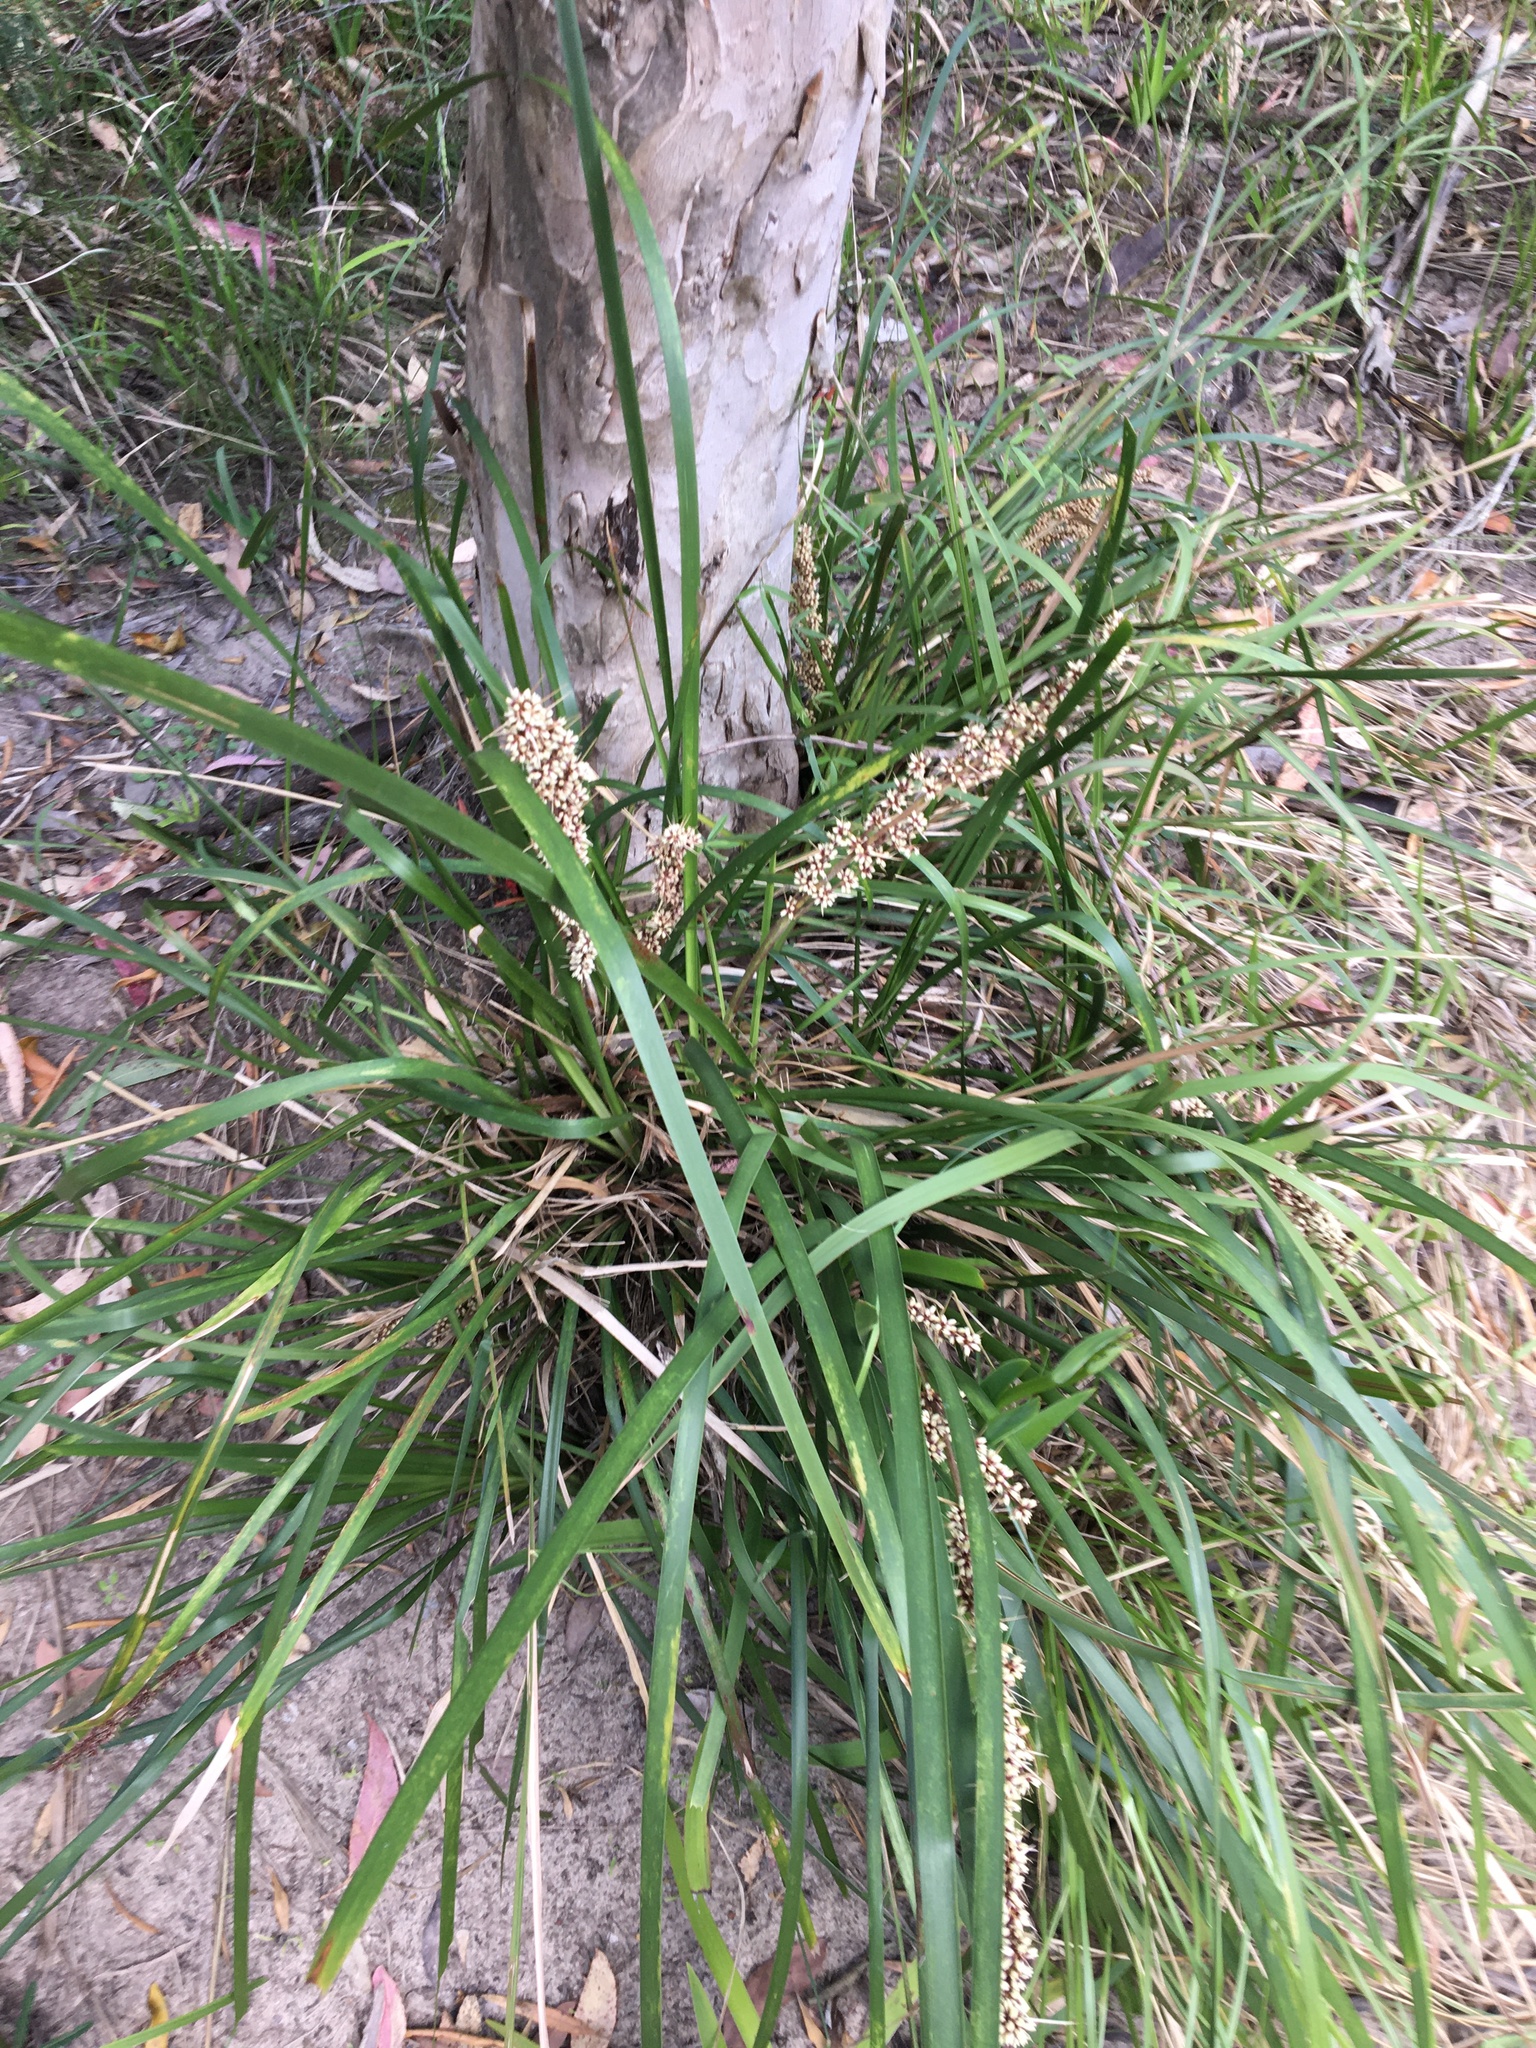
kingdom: Plantae
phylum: Tracheophyta
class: Liliopsida
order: Asparagales
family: Asparagaceae
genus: Lomandra
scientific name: Lomandra longifolia
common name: Longleaf mat-rush
